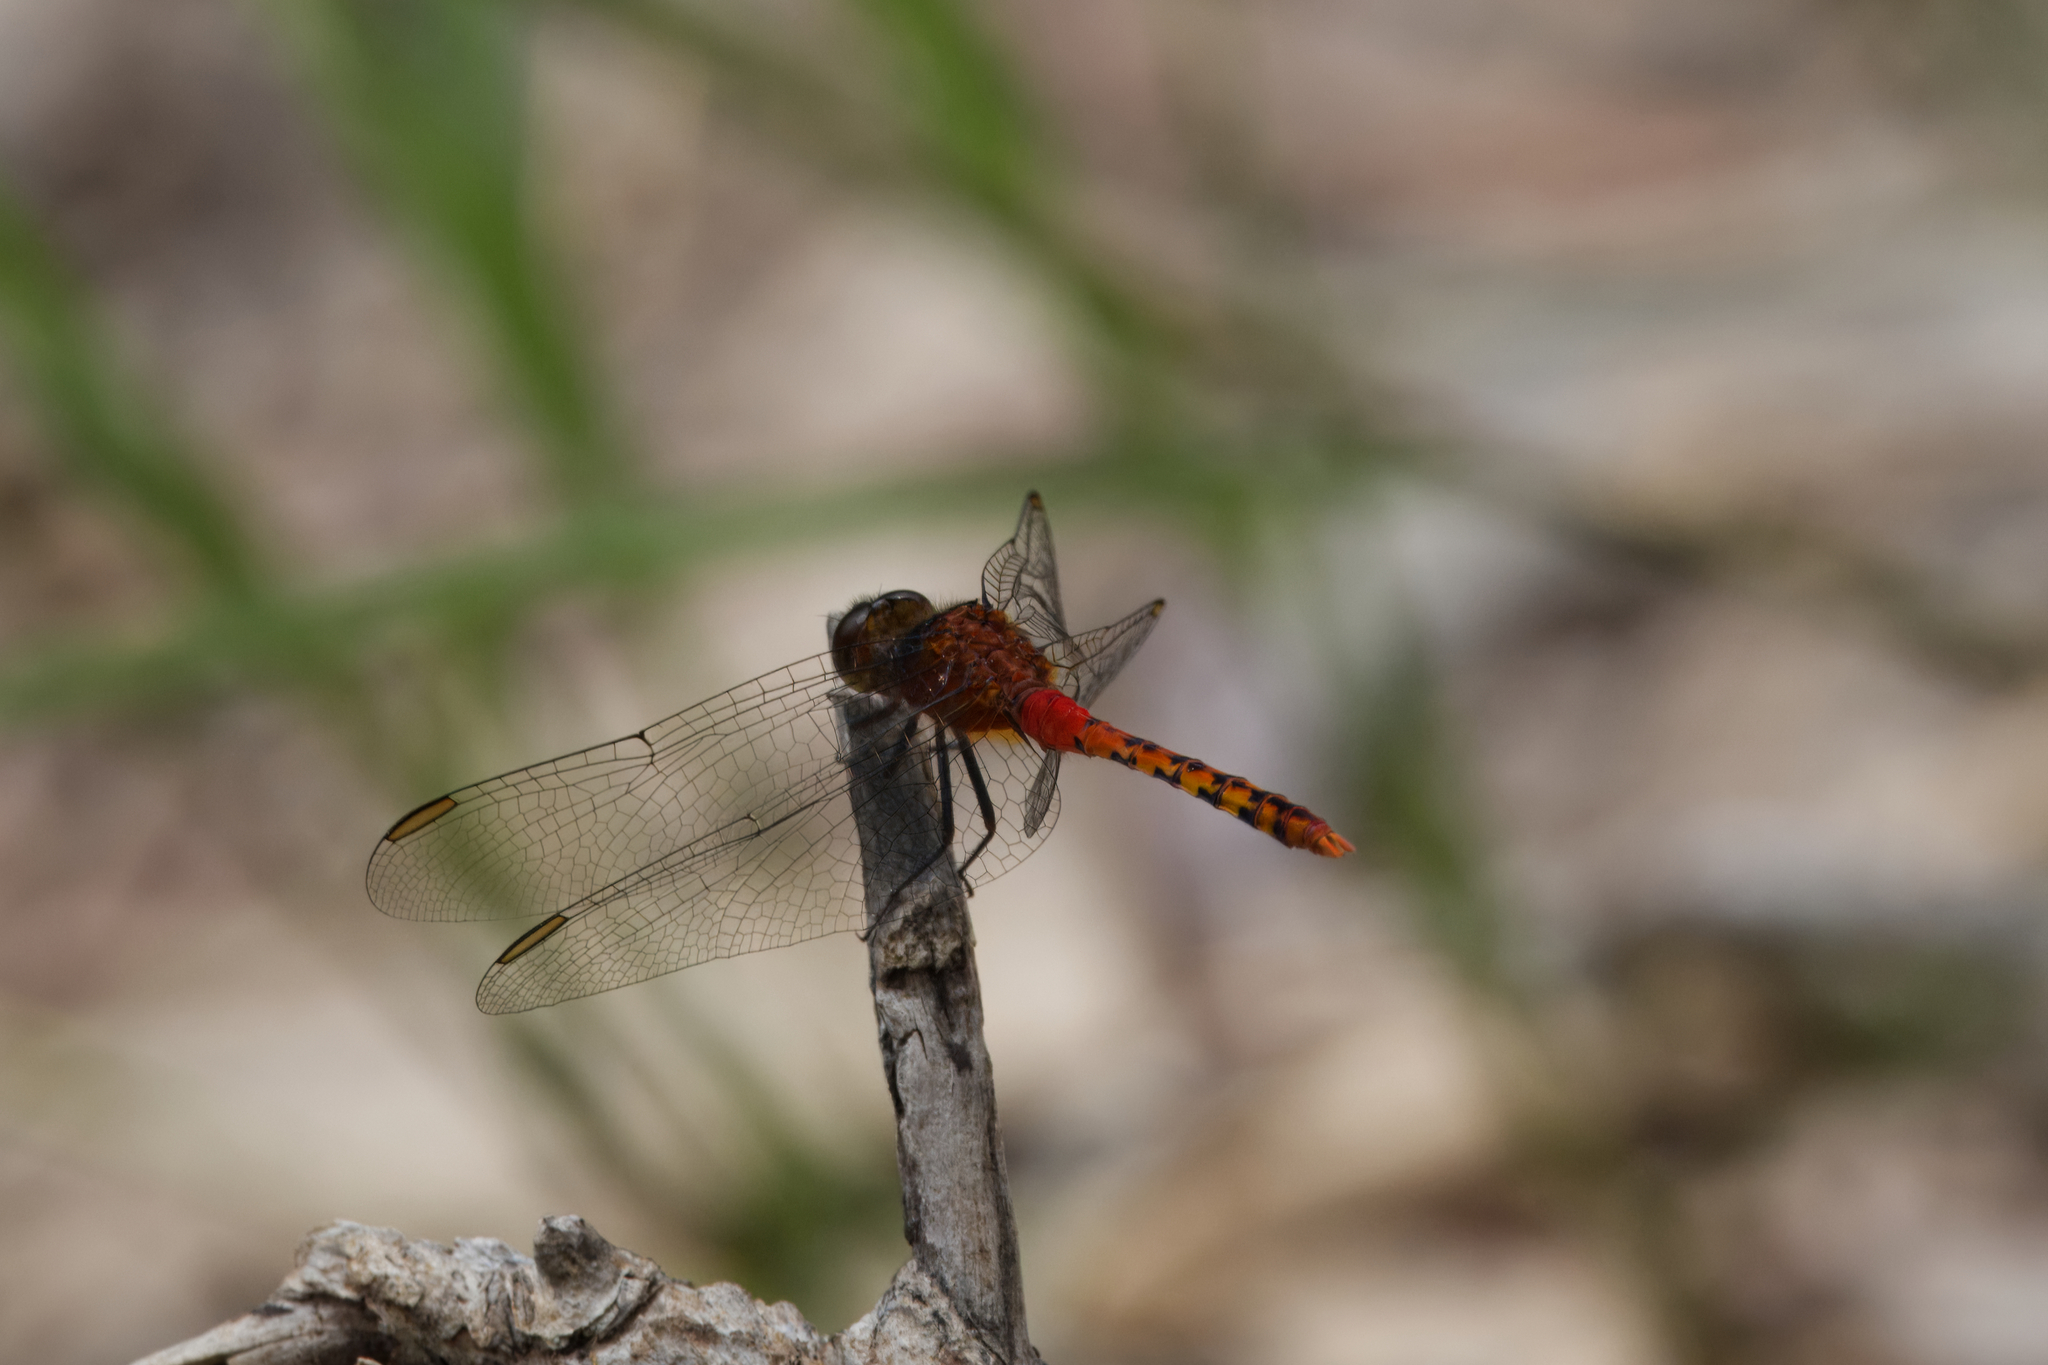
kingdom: Animalia
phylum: Arthropoda
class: Insecta
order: Odonata
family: Libellulidae
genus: Diplacodes
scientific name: Diplacodes melanopsis
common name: Black-faced percher
